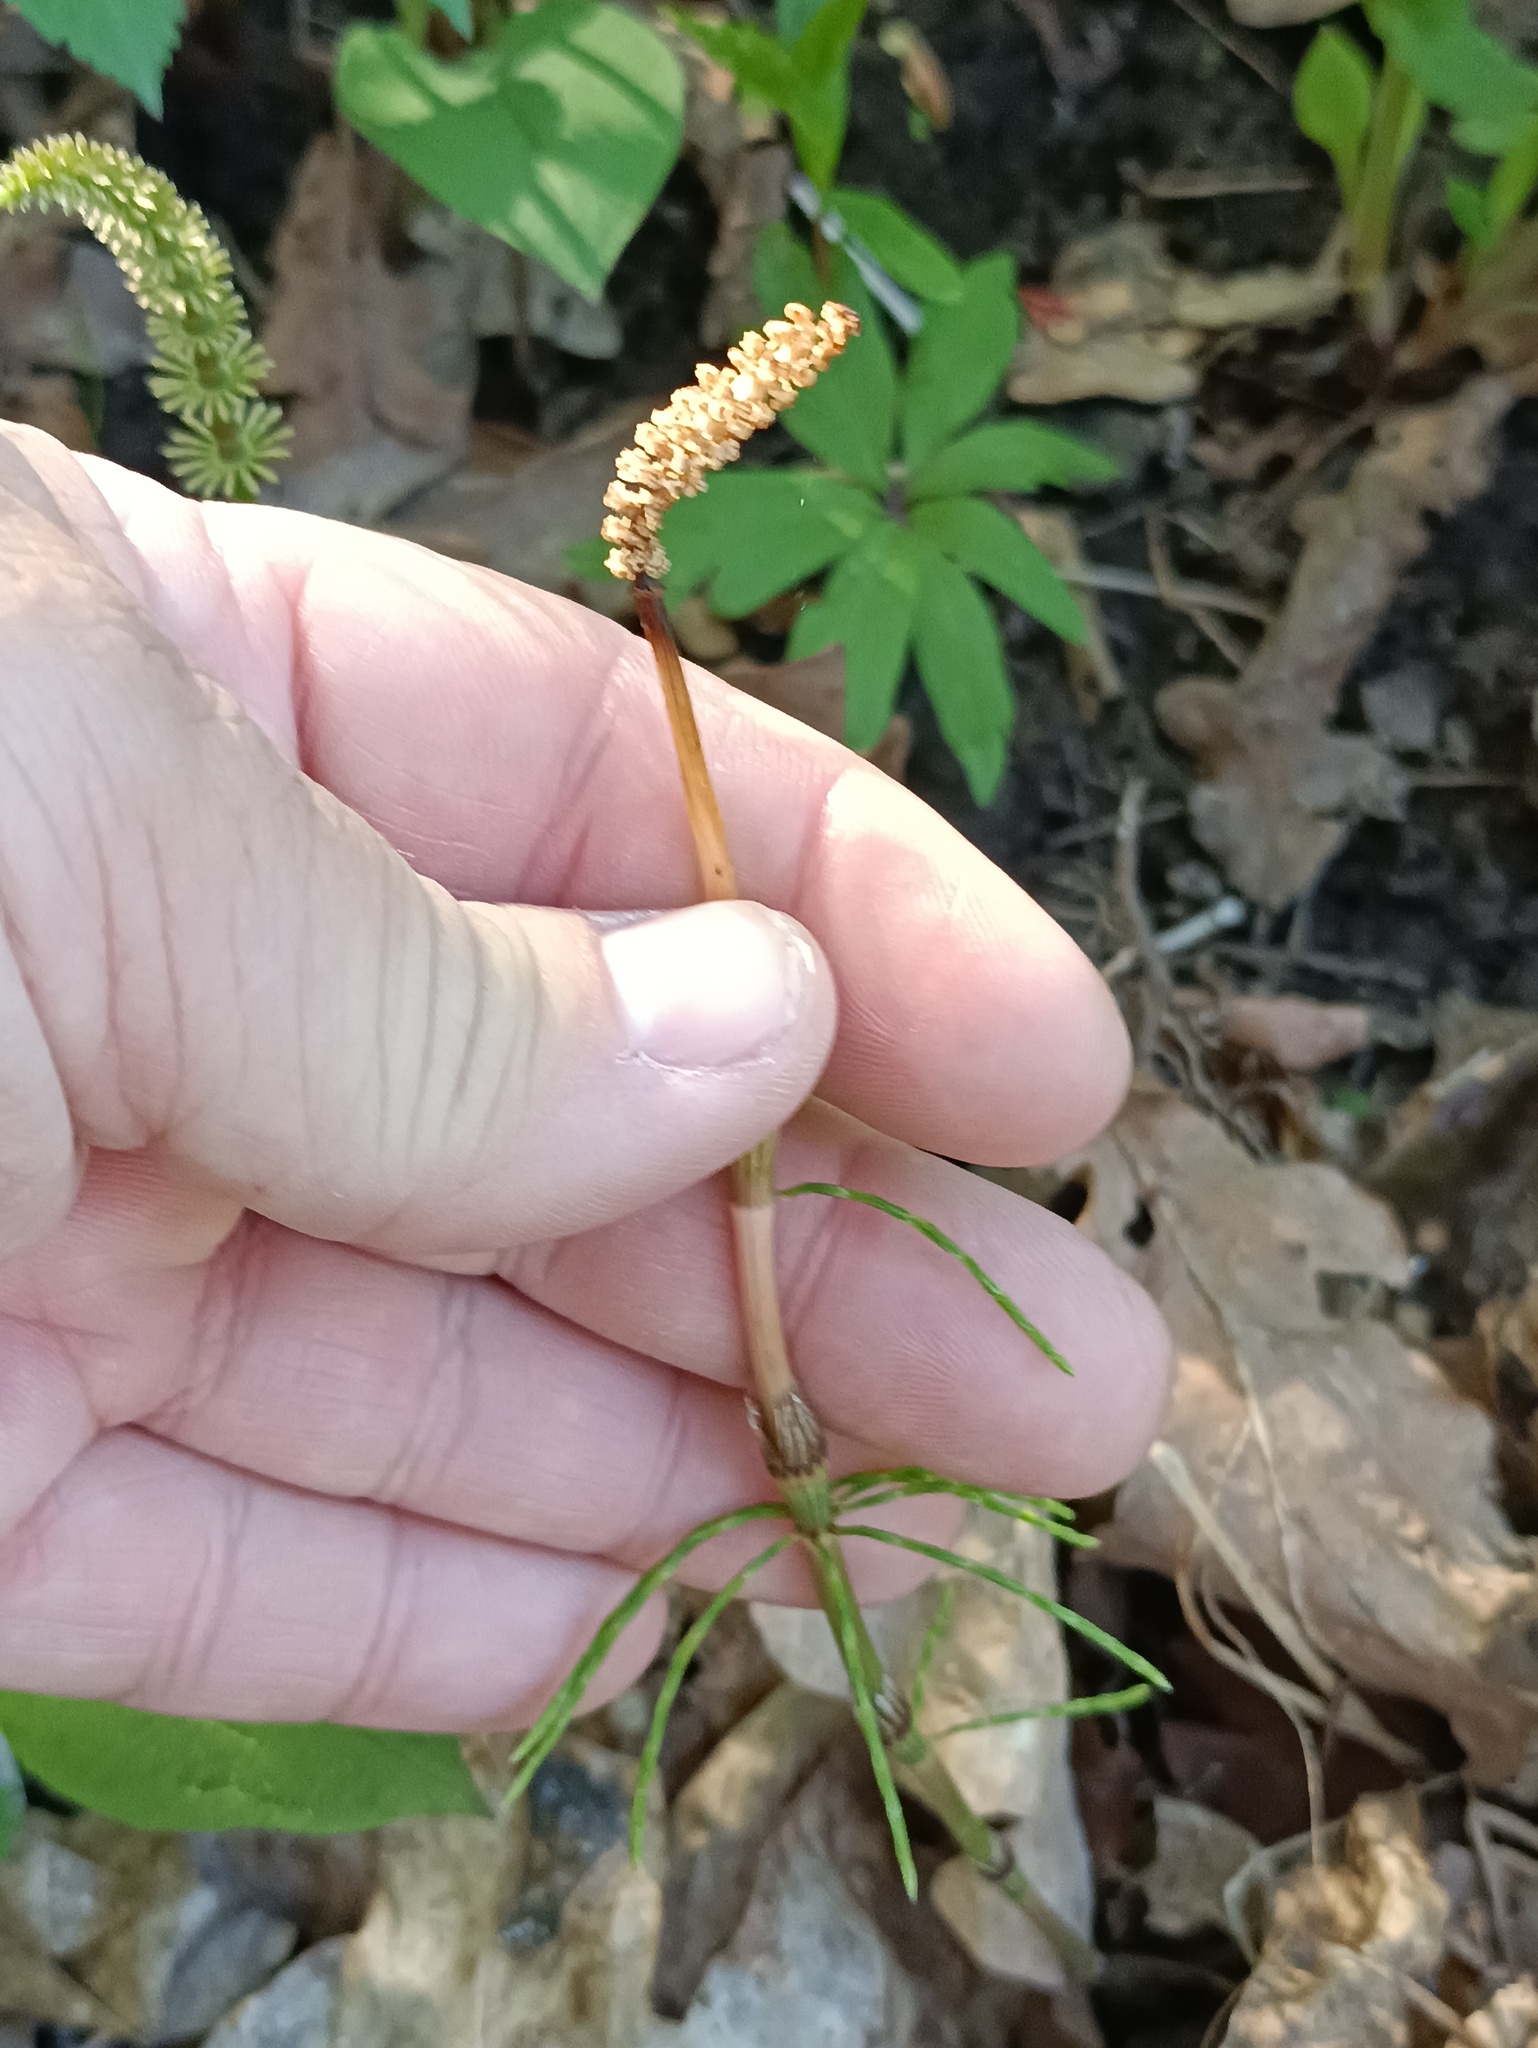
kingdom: Plantae
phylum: Tracheophyta
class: Polypodiopsida
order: Equisetales
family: Equisetaceae
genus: Equisetum
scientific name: Equisetum pratense
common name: Meadow horsetail
